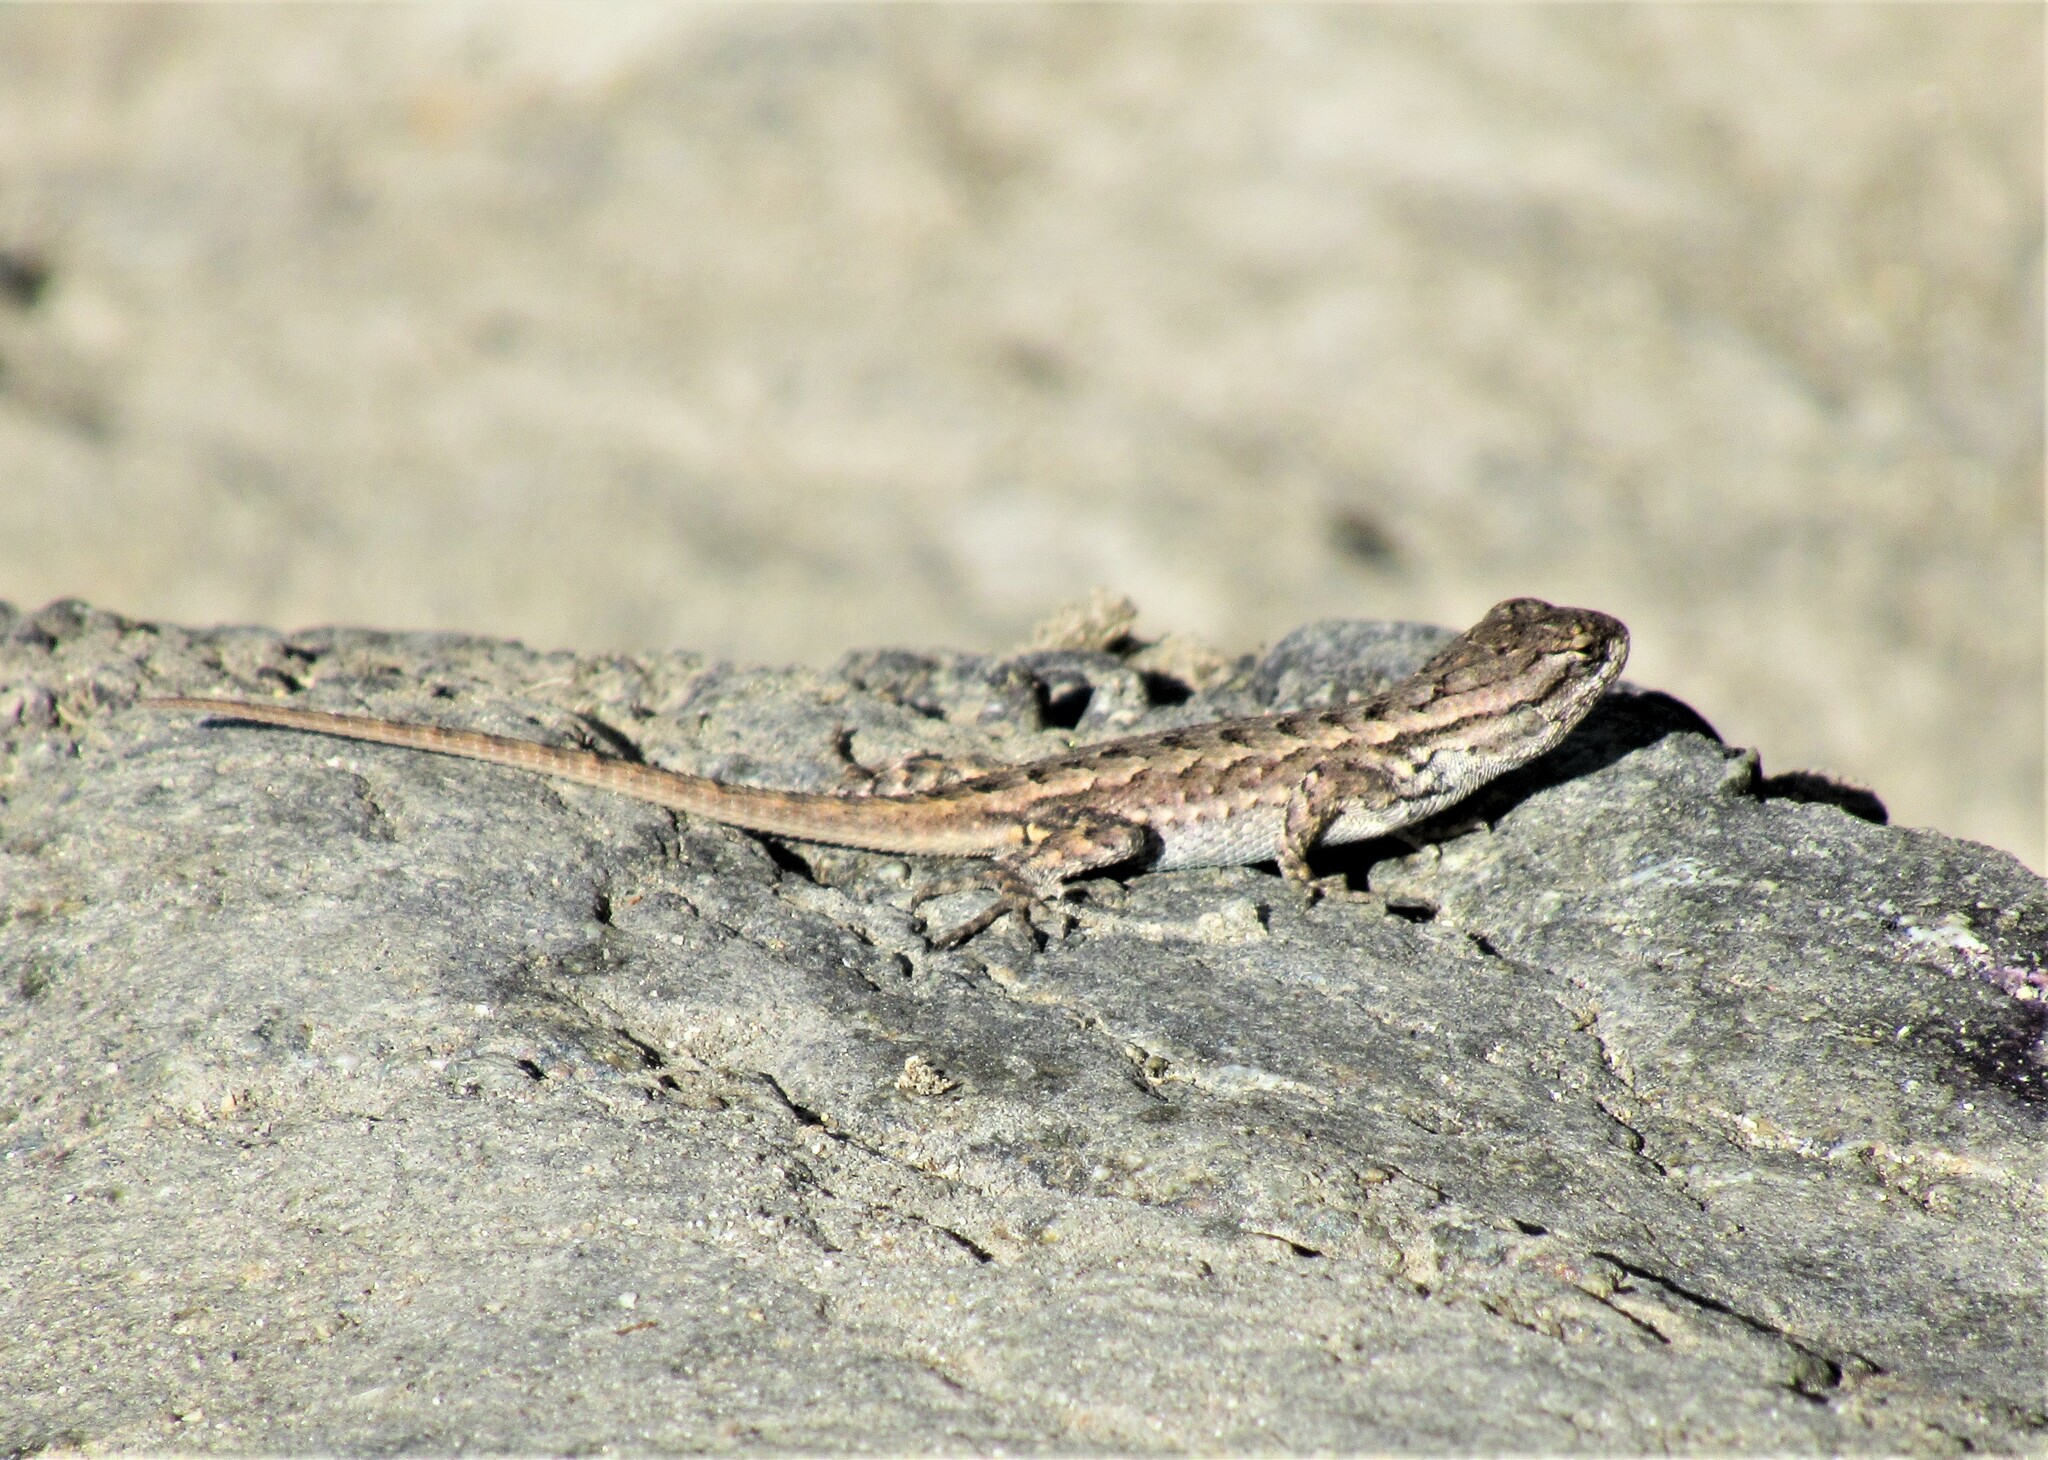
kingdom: Animalia
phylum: Chordata
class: Squamata
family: Phrynosomatidae
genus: Sceloporus
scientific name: Sceloporus occidentalis
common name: Western fence lizard
